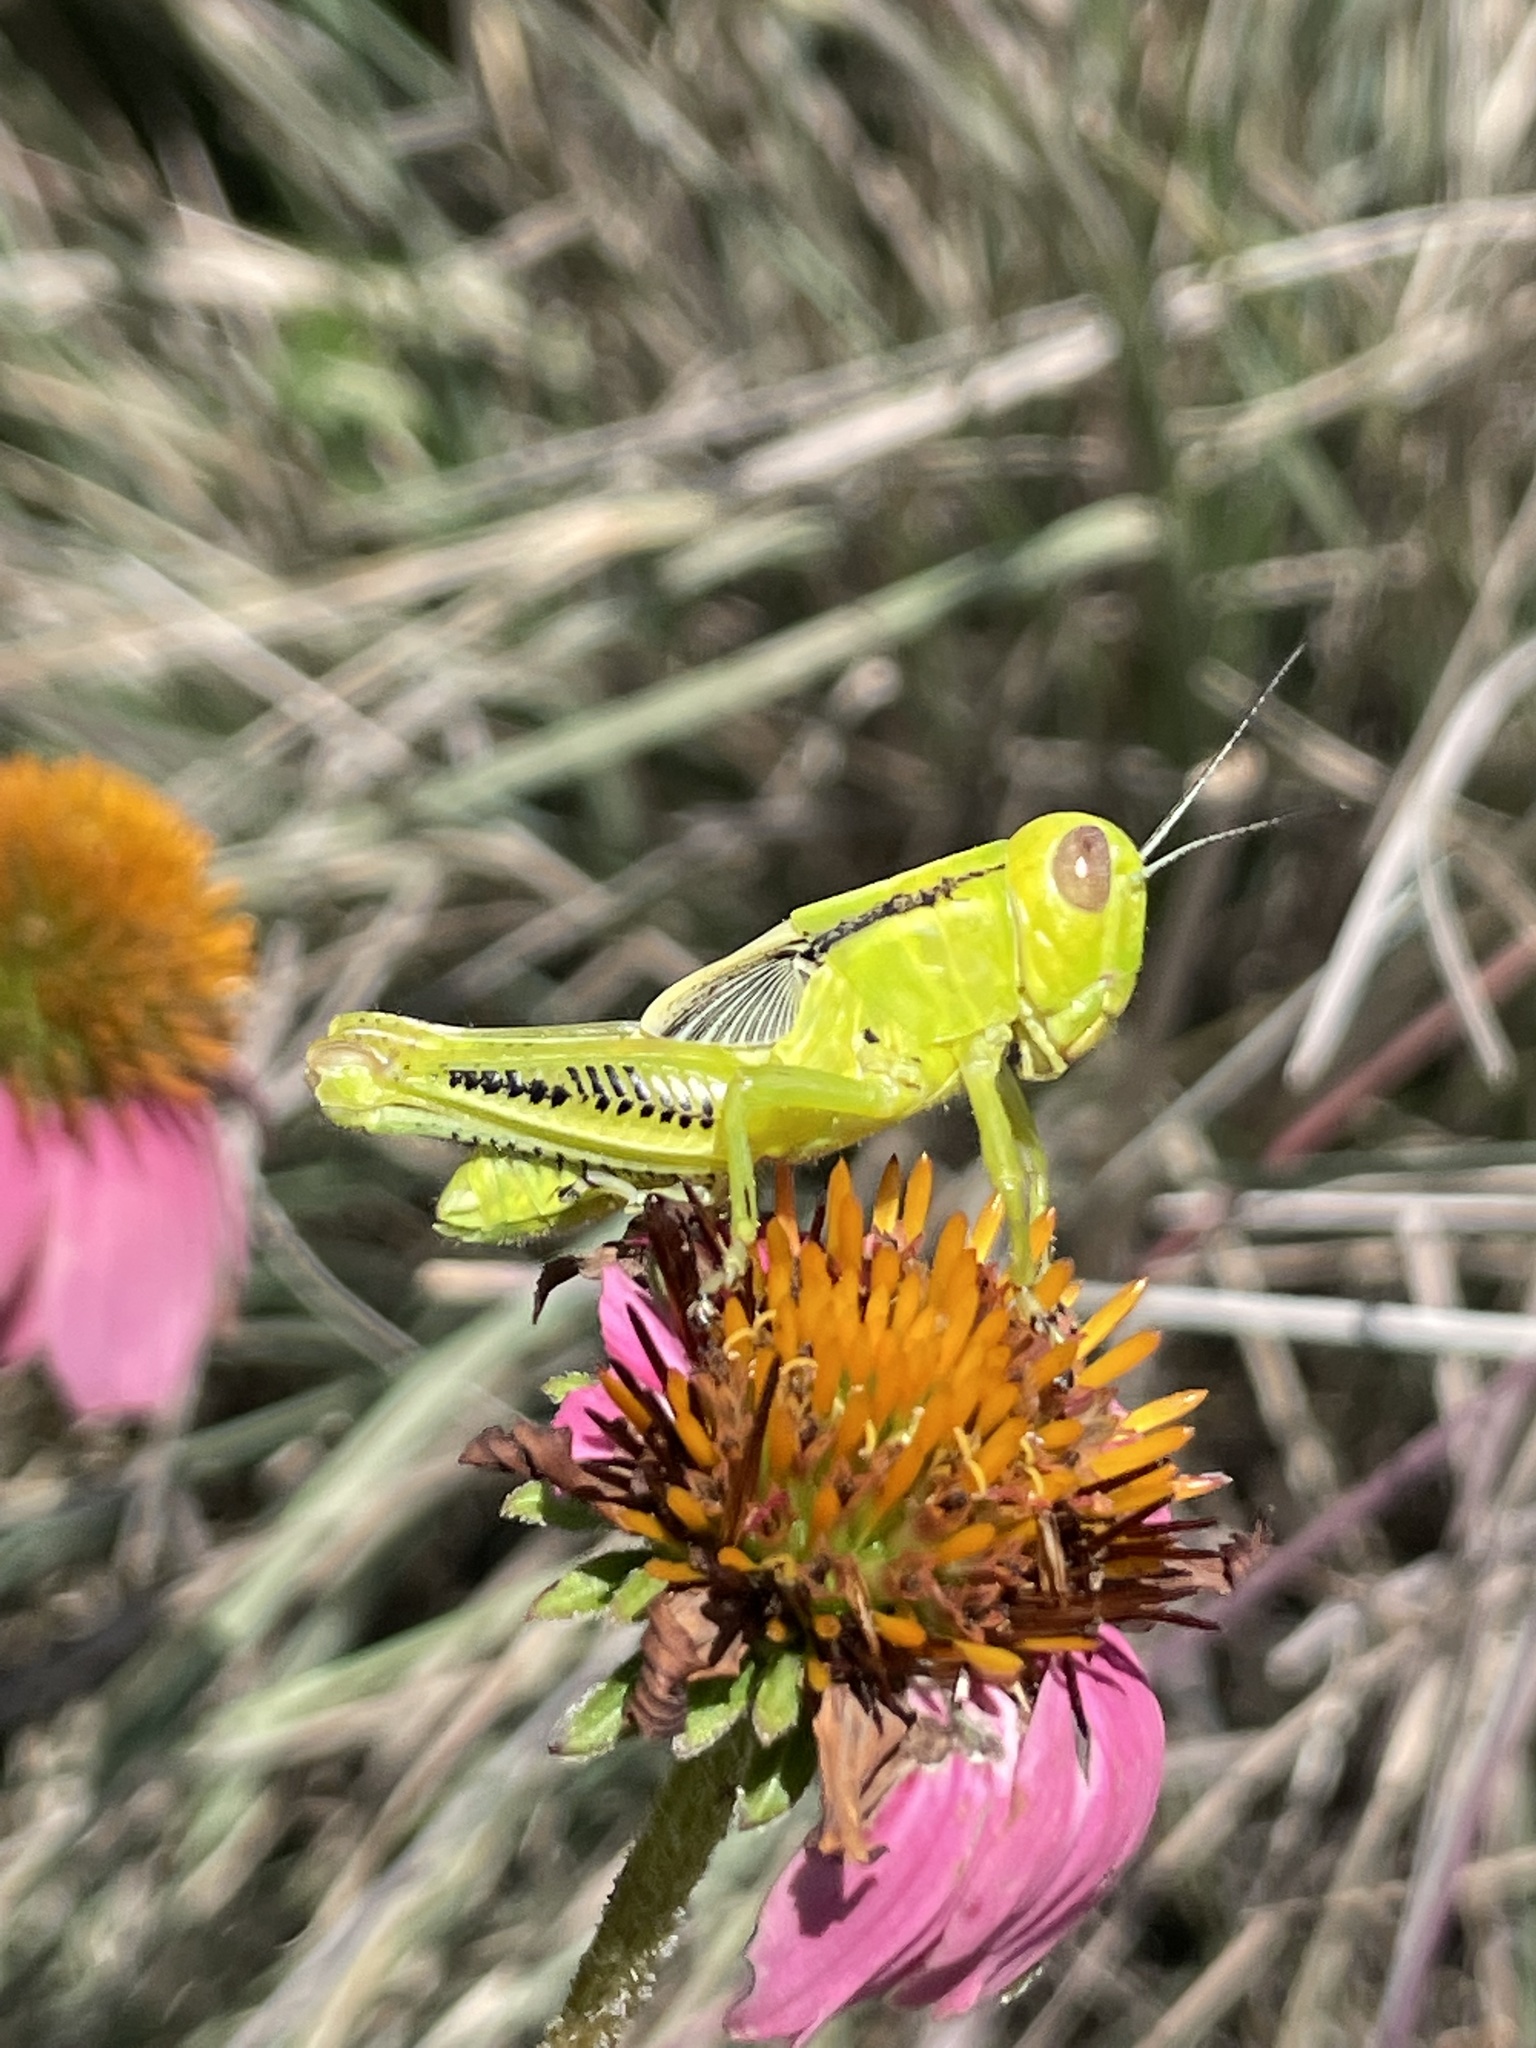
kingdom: Animalia
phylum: Arthropoda
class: Insecta
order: Orthoptera
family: Acrididae
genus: Melanoplus
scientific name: Melanoplus differentialis
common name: Differential grasshopper
